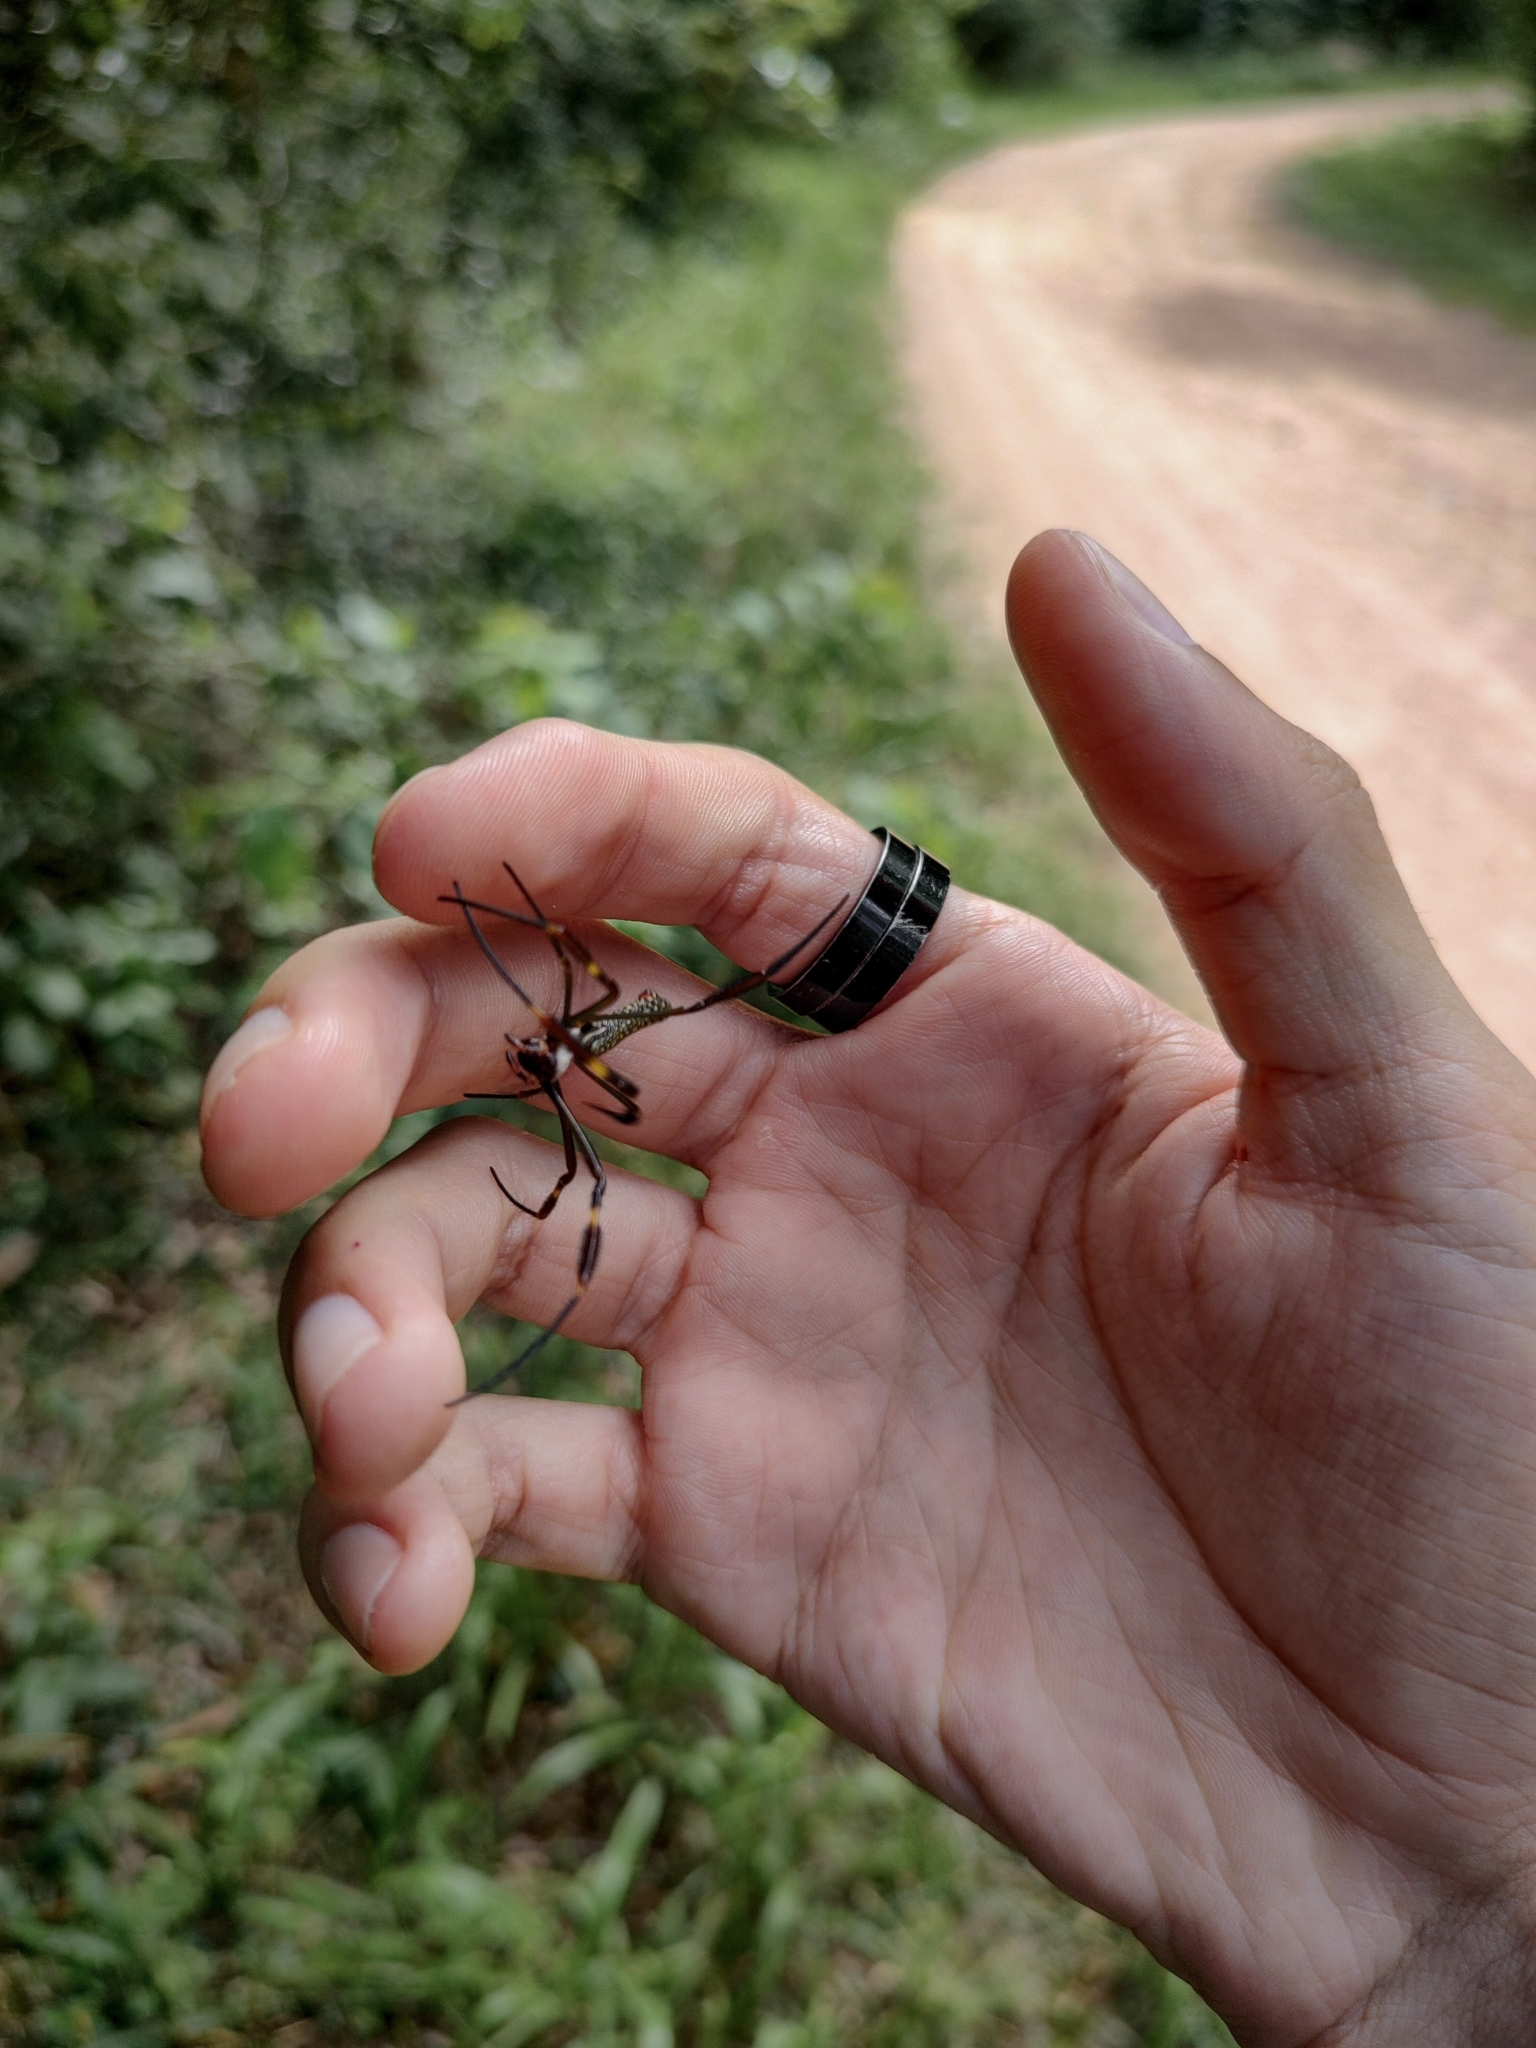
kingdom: Animalia
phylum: Arthropoda
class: Arachnida
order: Araneae
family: Araneidae
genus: Trichonephila
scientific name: Trichonephila clavipes
